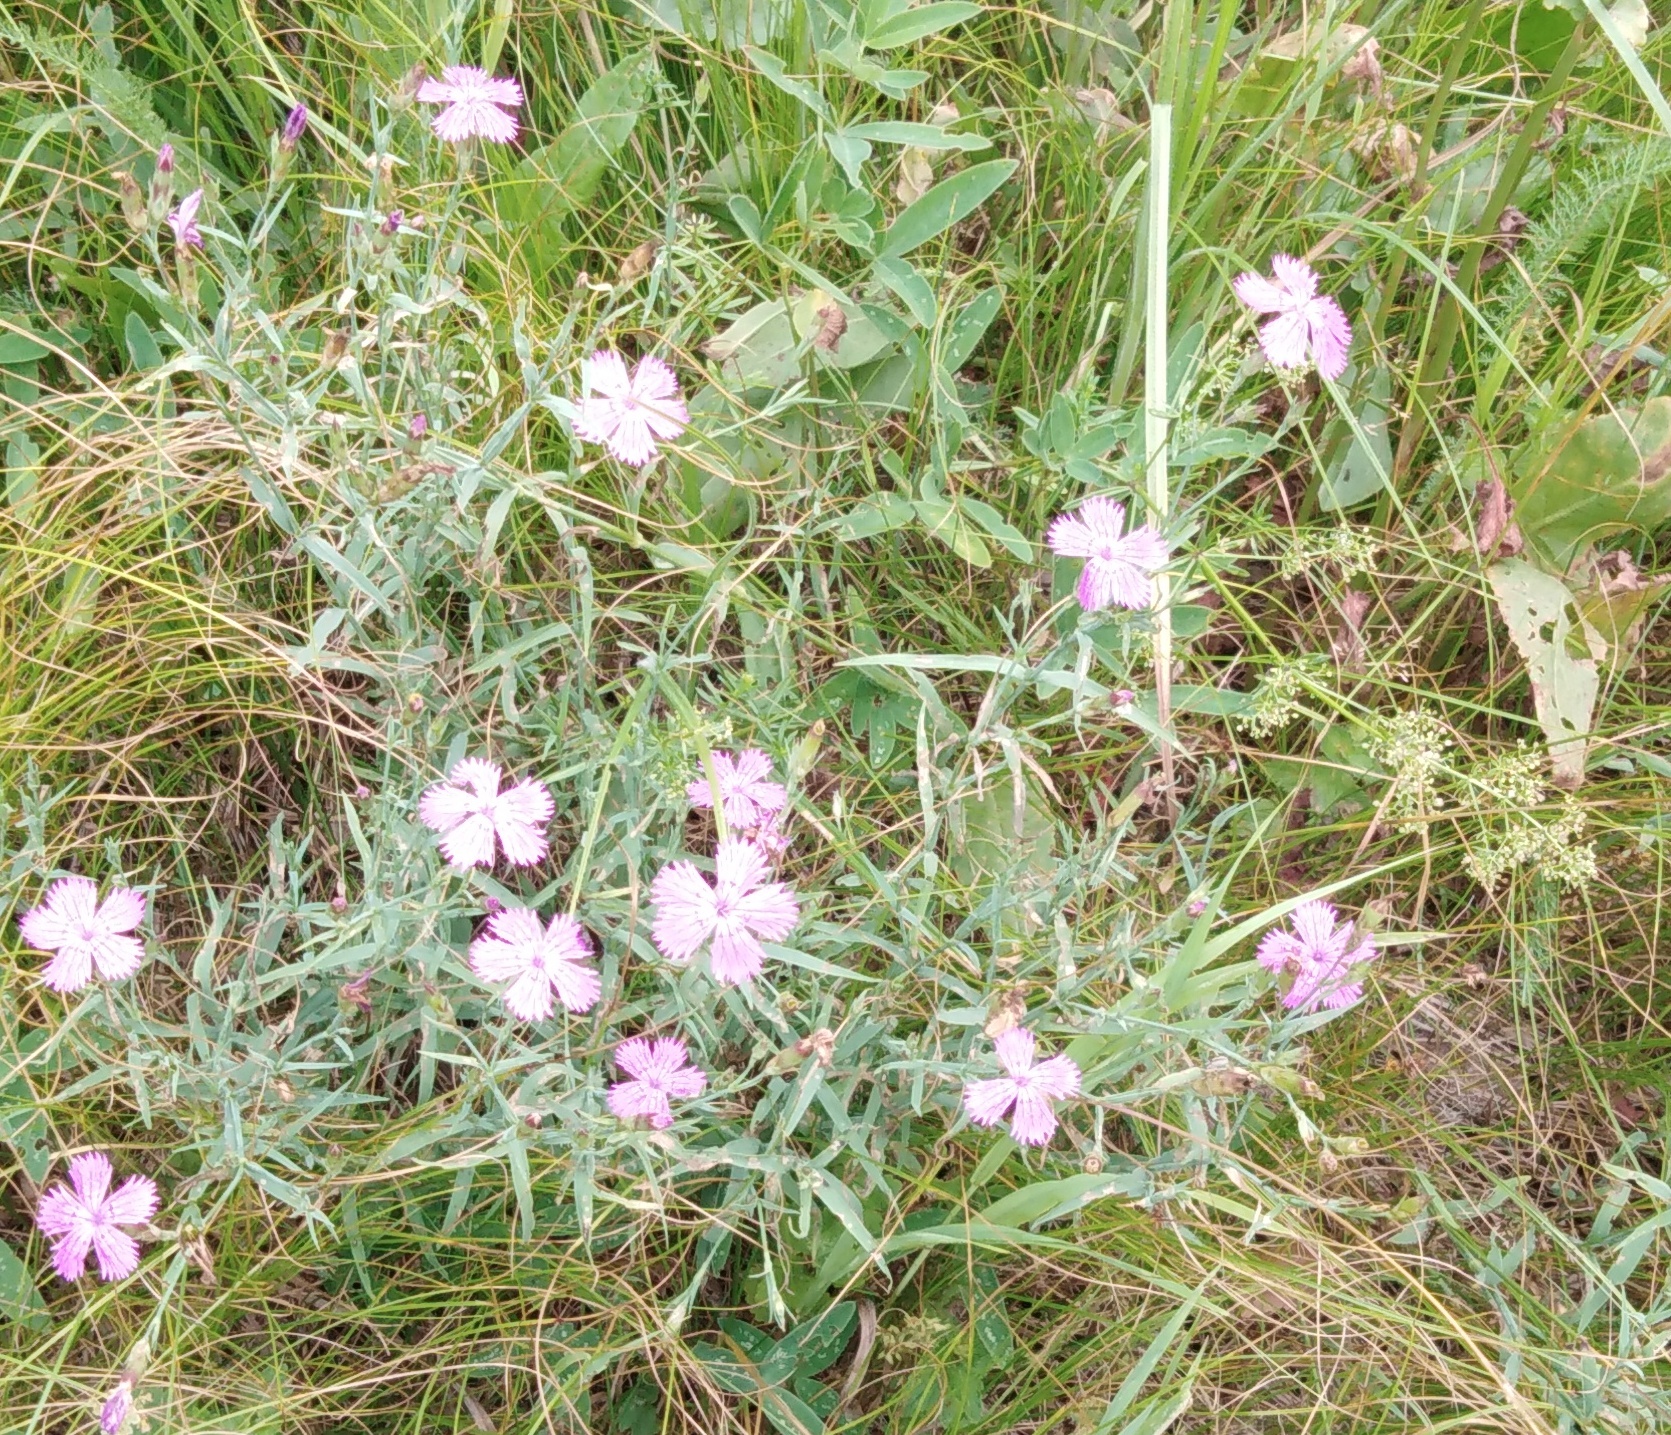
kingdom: Plantae
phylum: Tracheophyta
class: Magnoliopsida
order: Caryophyllales
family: Caryophyllaceae
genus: Dianthus
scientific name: Dianthus chinensis
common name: Rainbow pink
